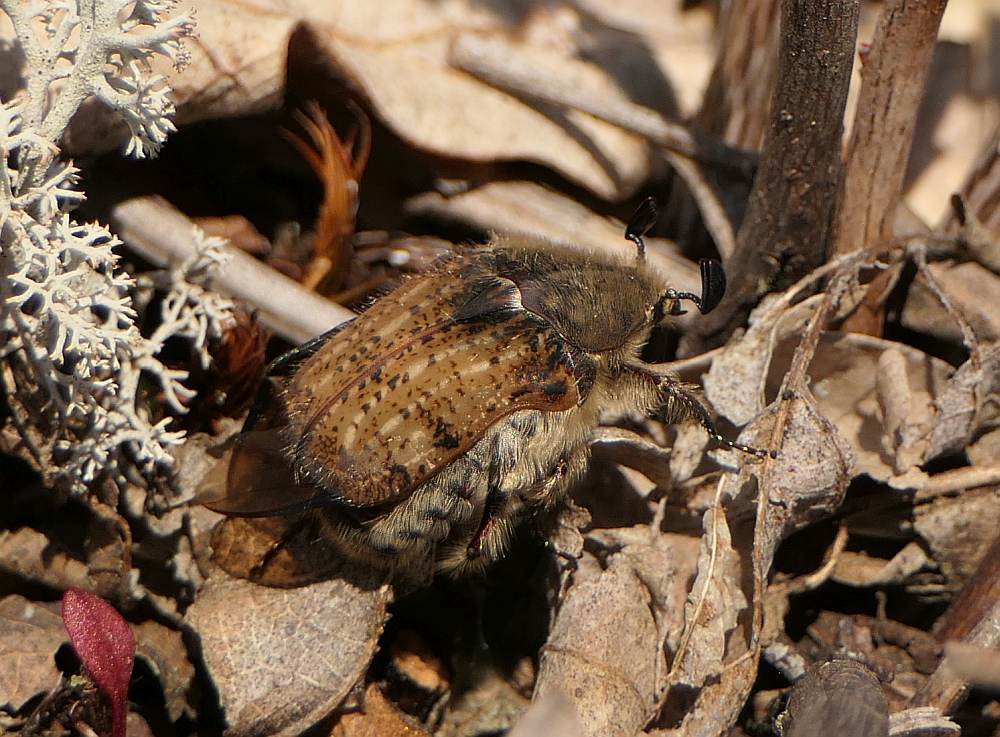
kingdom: Animalia
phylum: Arthropoda
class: Insecta
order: Coleoptera
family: Scarabaeidae
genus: Euphoria
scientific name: Euphoria inda
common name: Bumble flower beetle
